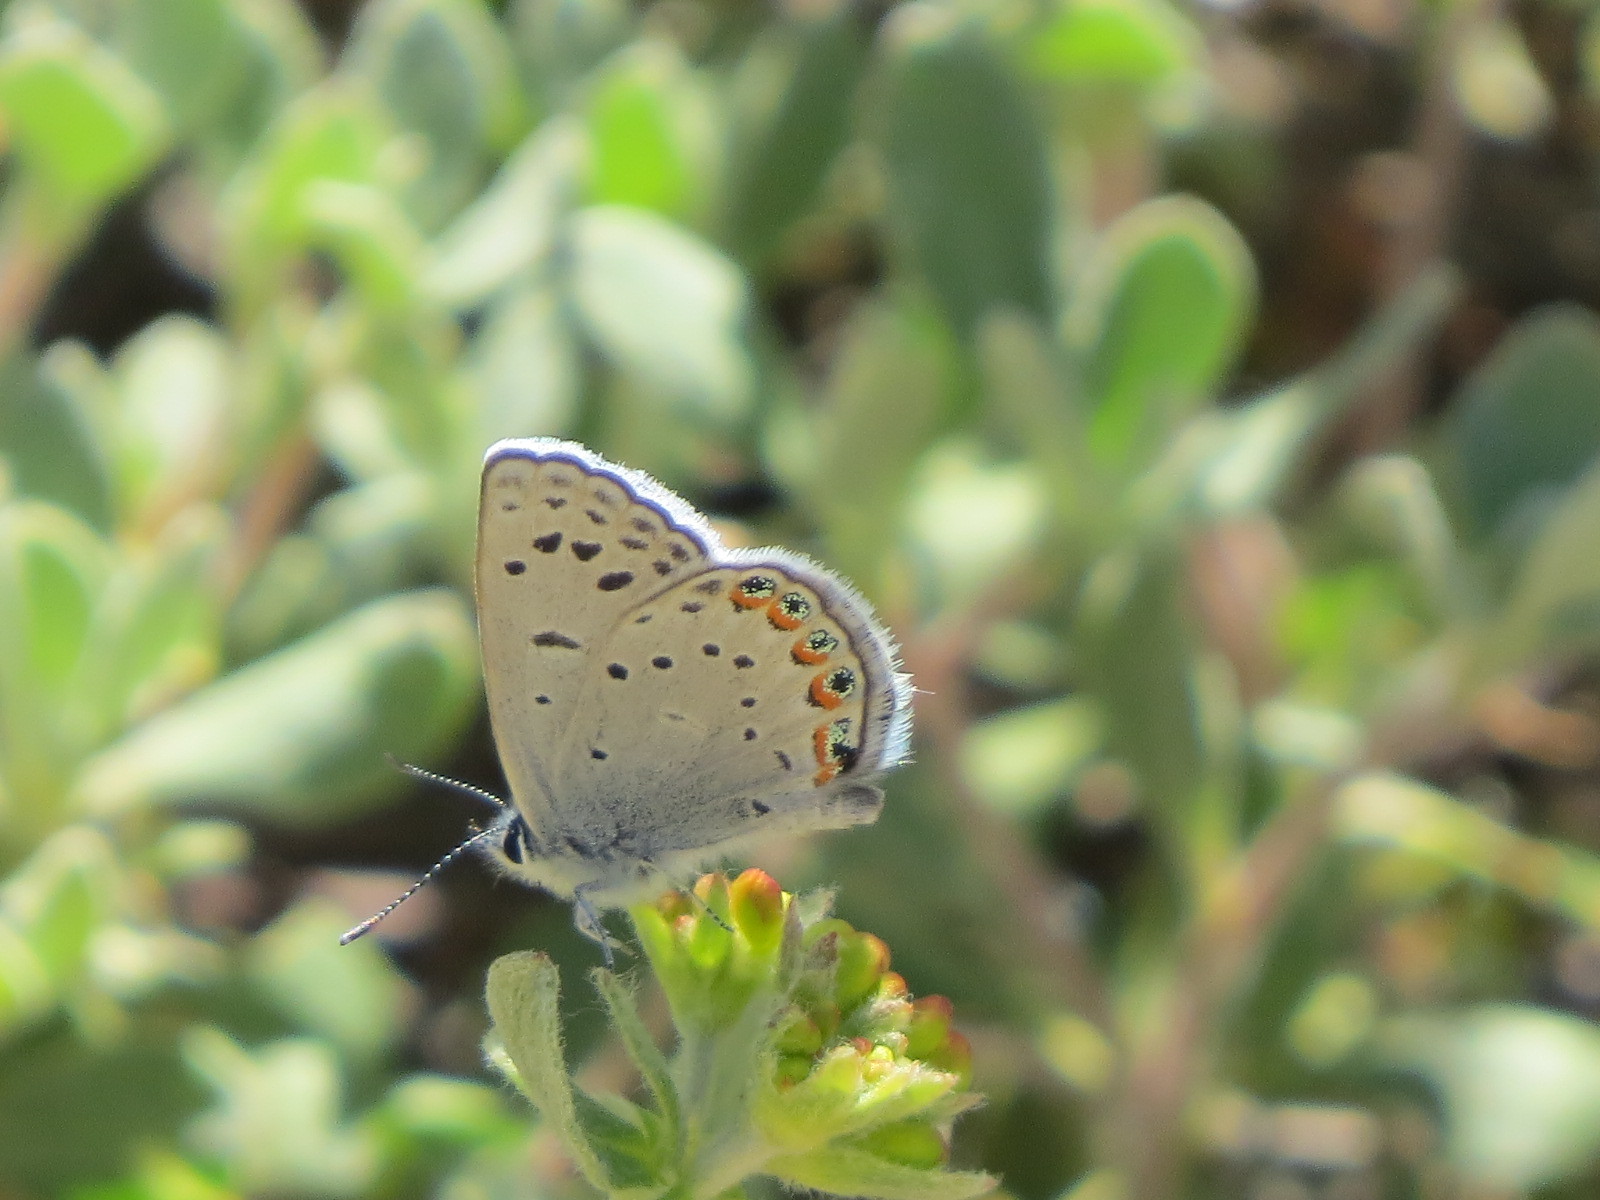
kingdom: Animalia
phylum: Arthropoda
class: Insecta
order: Lepidoptera
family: Lycaenidae
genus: Icaricia
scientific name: Icaricia lupini
